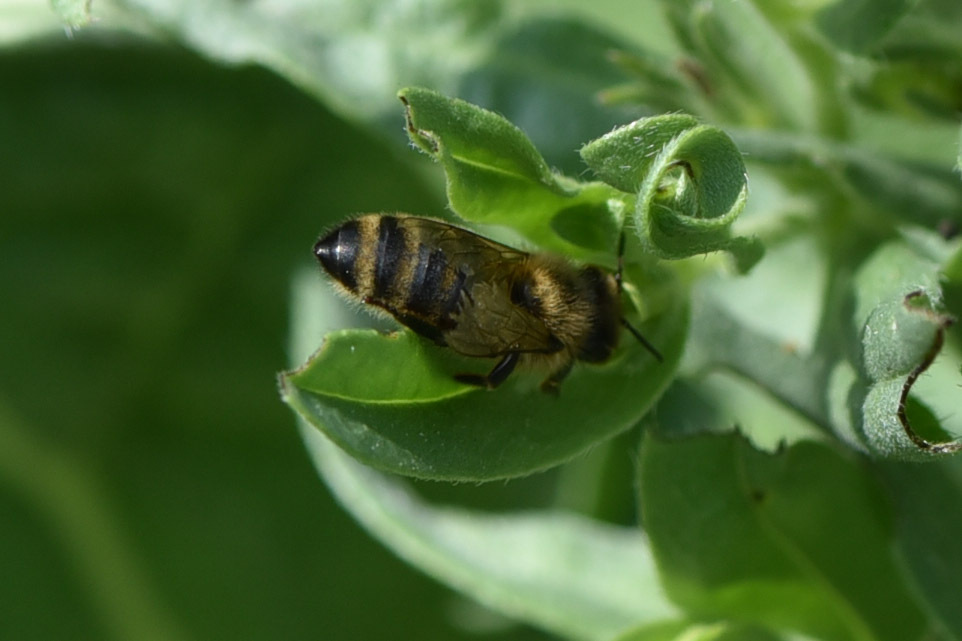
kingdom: Animalia
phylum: Arthropoda
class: Insecta
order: Hymenoptera
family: Apidae
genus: Apis
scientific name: Apis mellifera
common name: Honey bee
